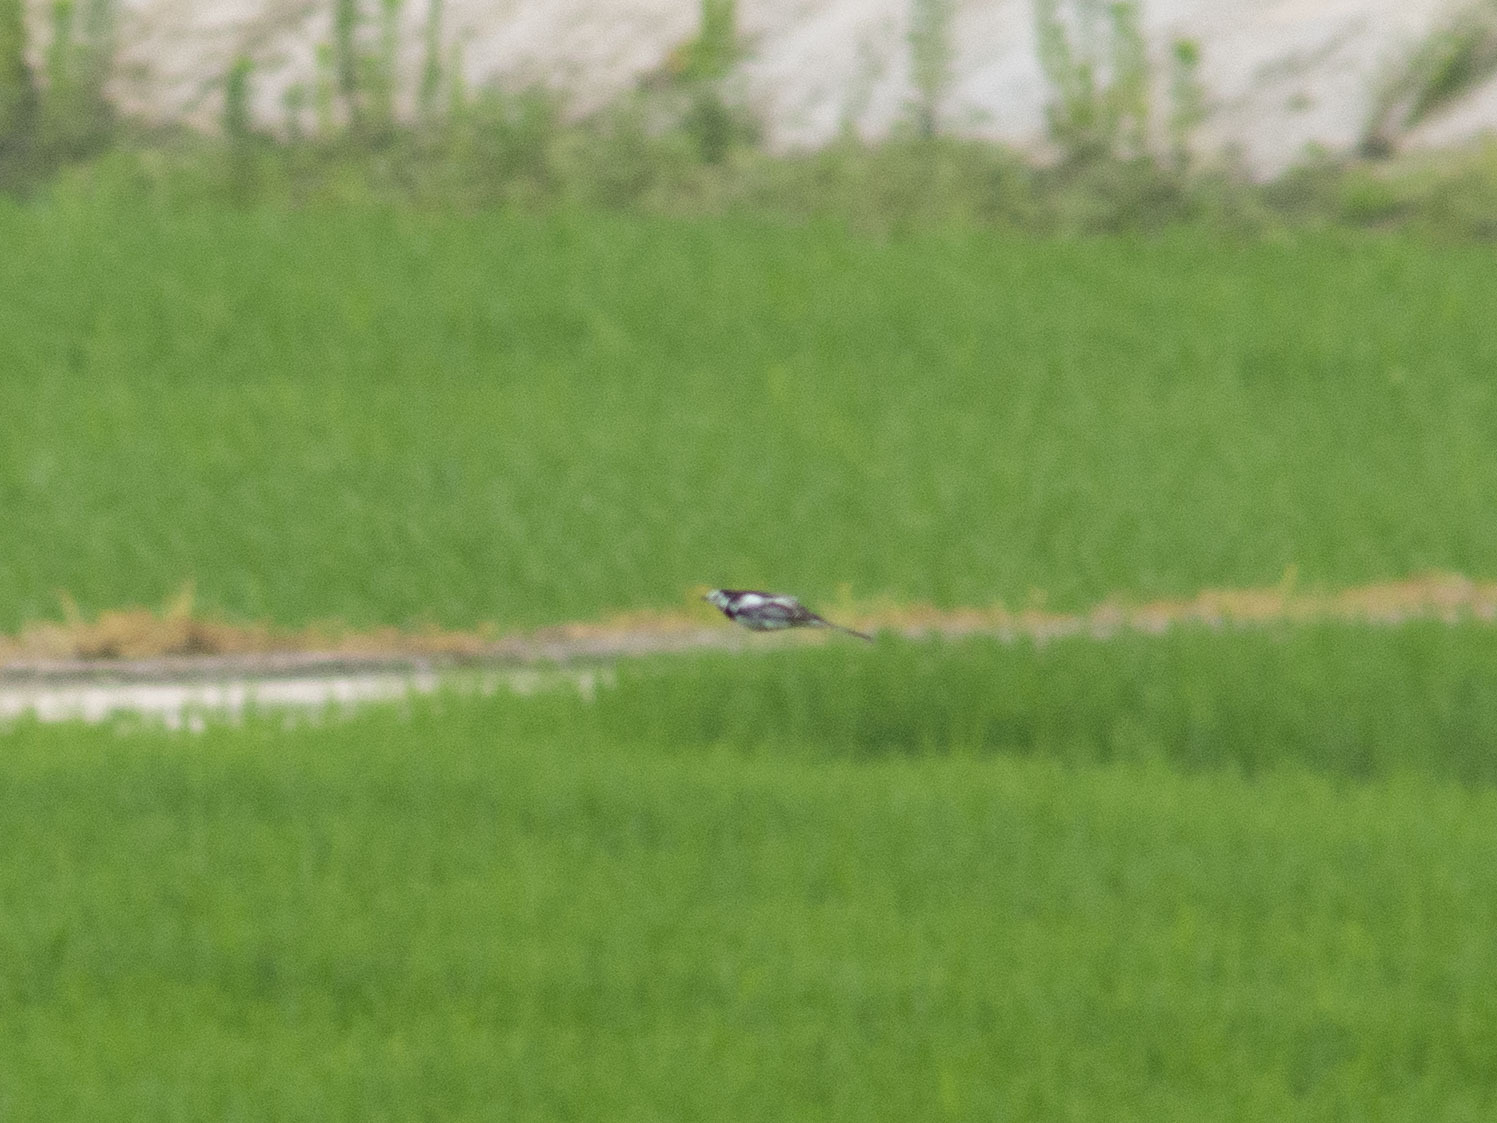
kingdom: Animalia
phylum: Chordata
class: Aves
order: Passeriformes
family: Motacillidae
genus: Motacilla
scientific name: Motacilla alba
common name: White wagtail
